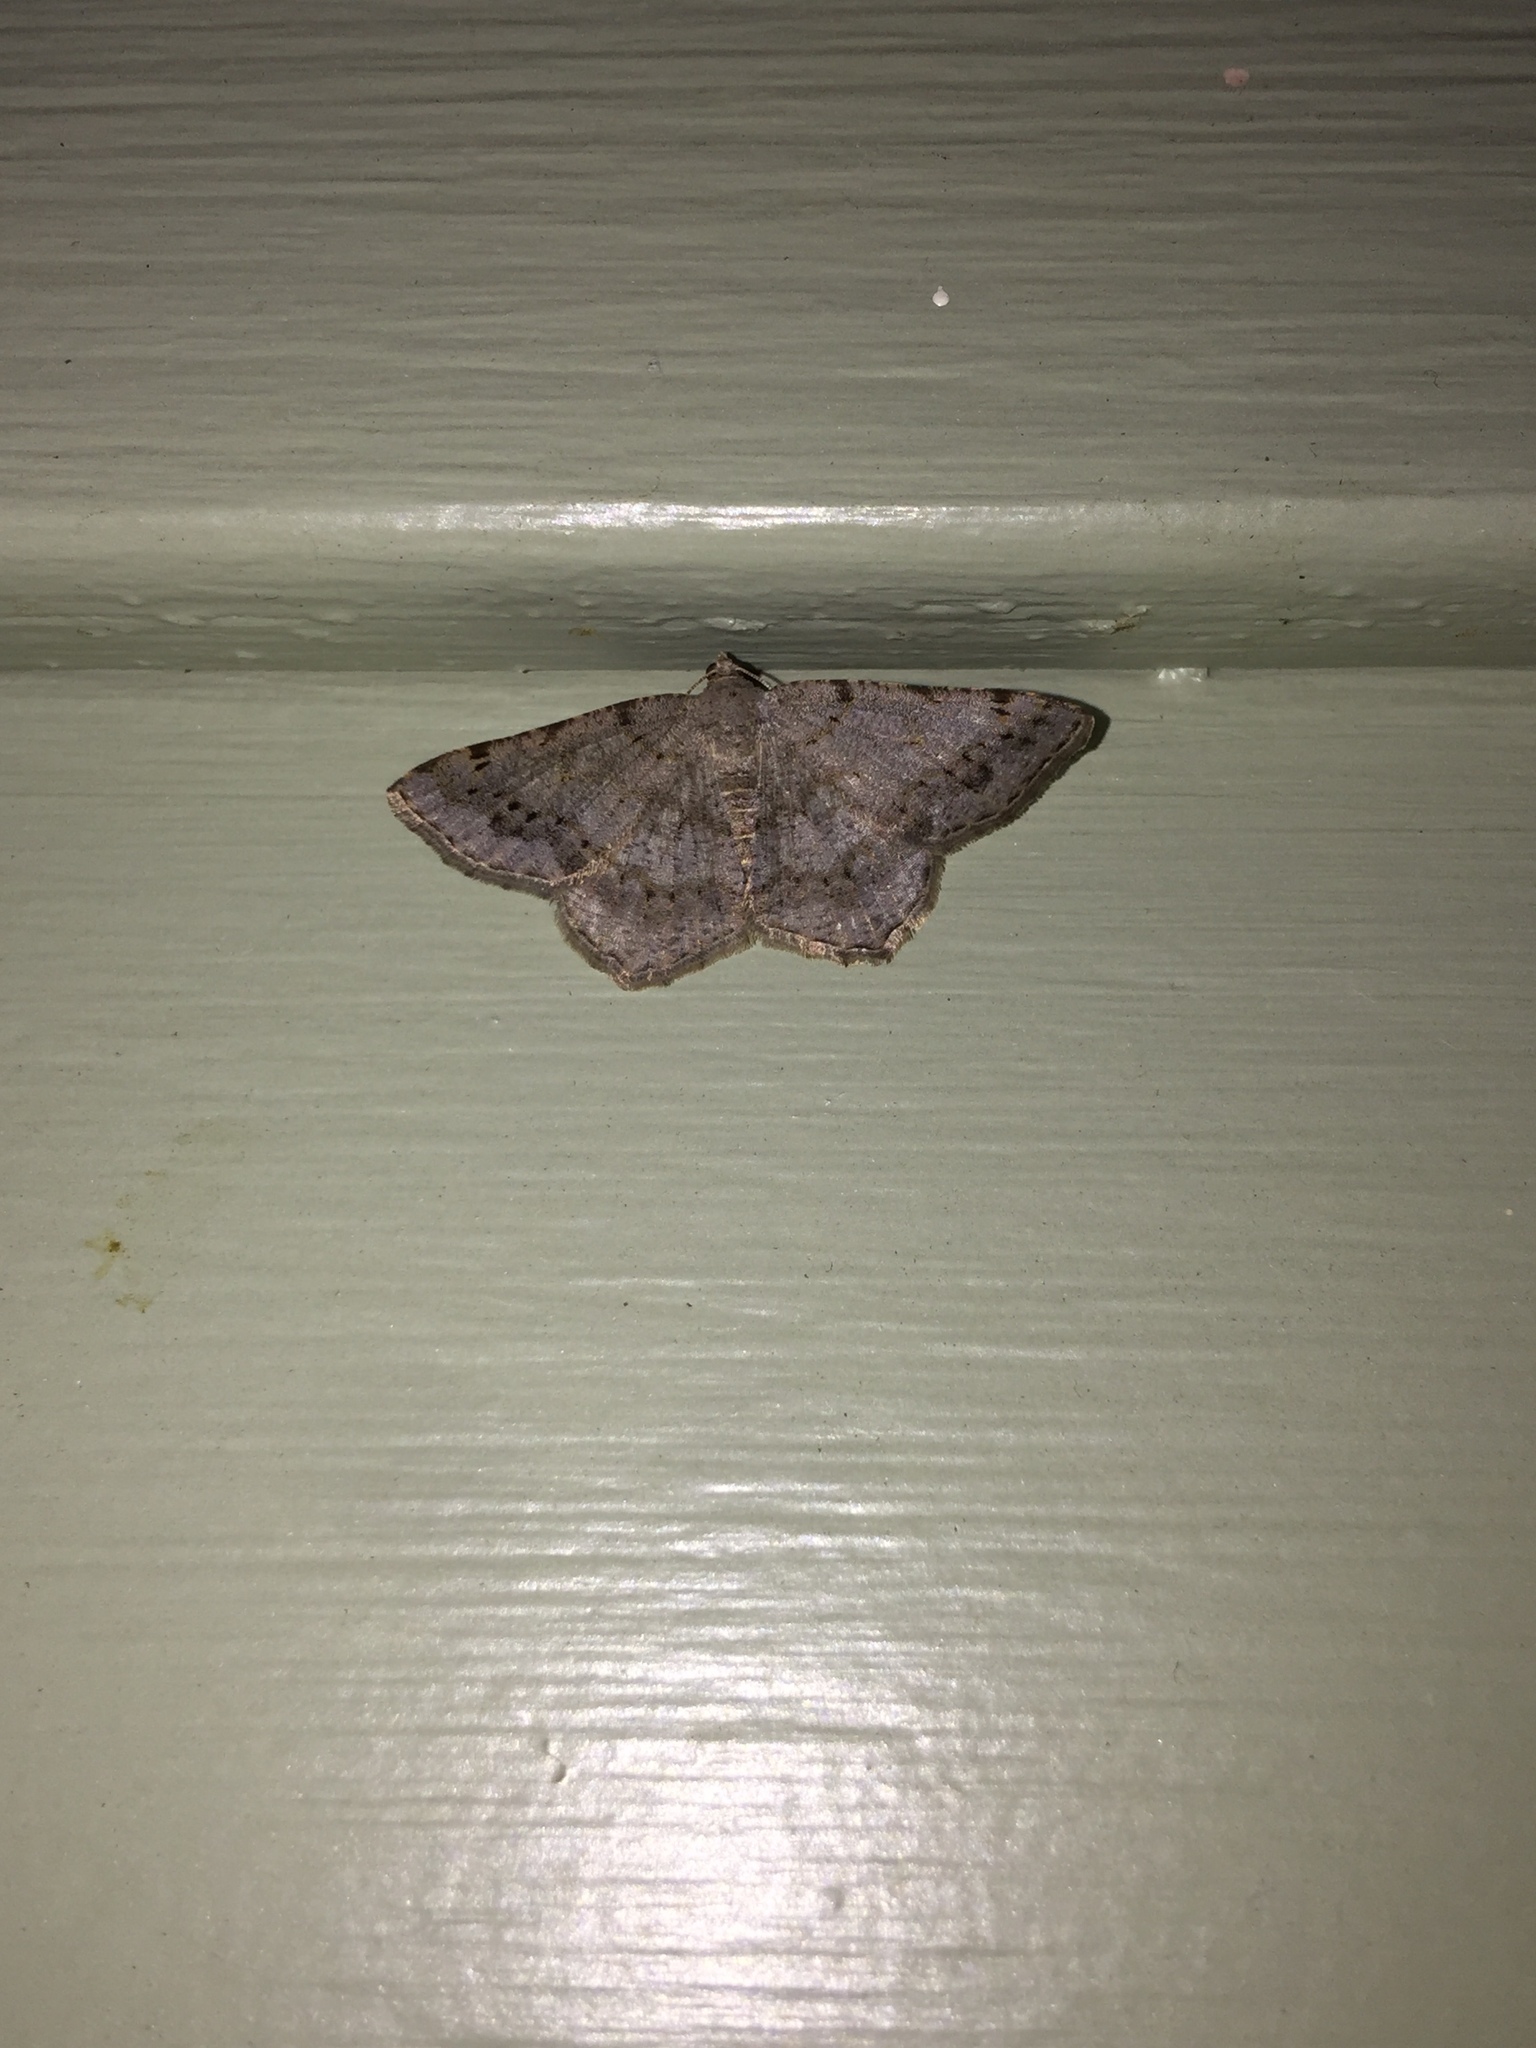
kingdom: Animalia
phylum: Arthropoda
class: Insecta
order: Lepidoptera
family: Geometridae
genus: Digrammia
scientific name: Digrammia ocellinata
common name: Faint-spotted angle
